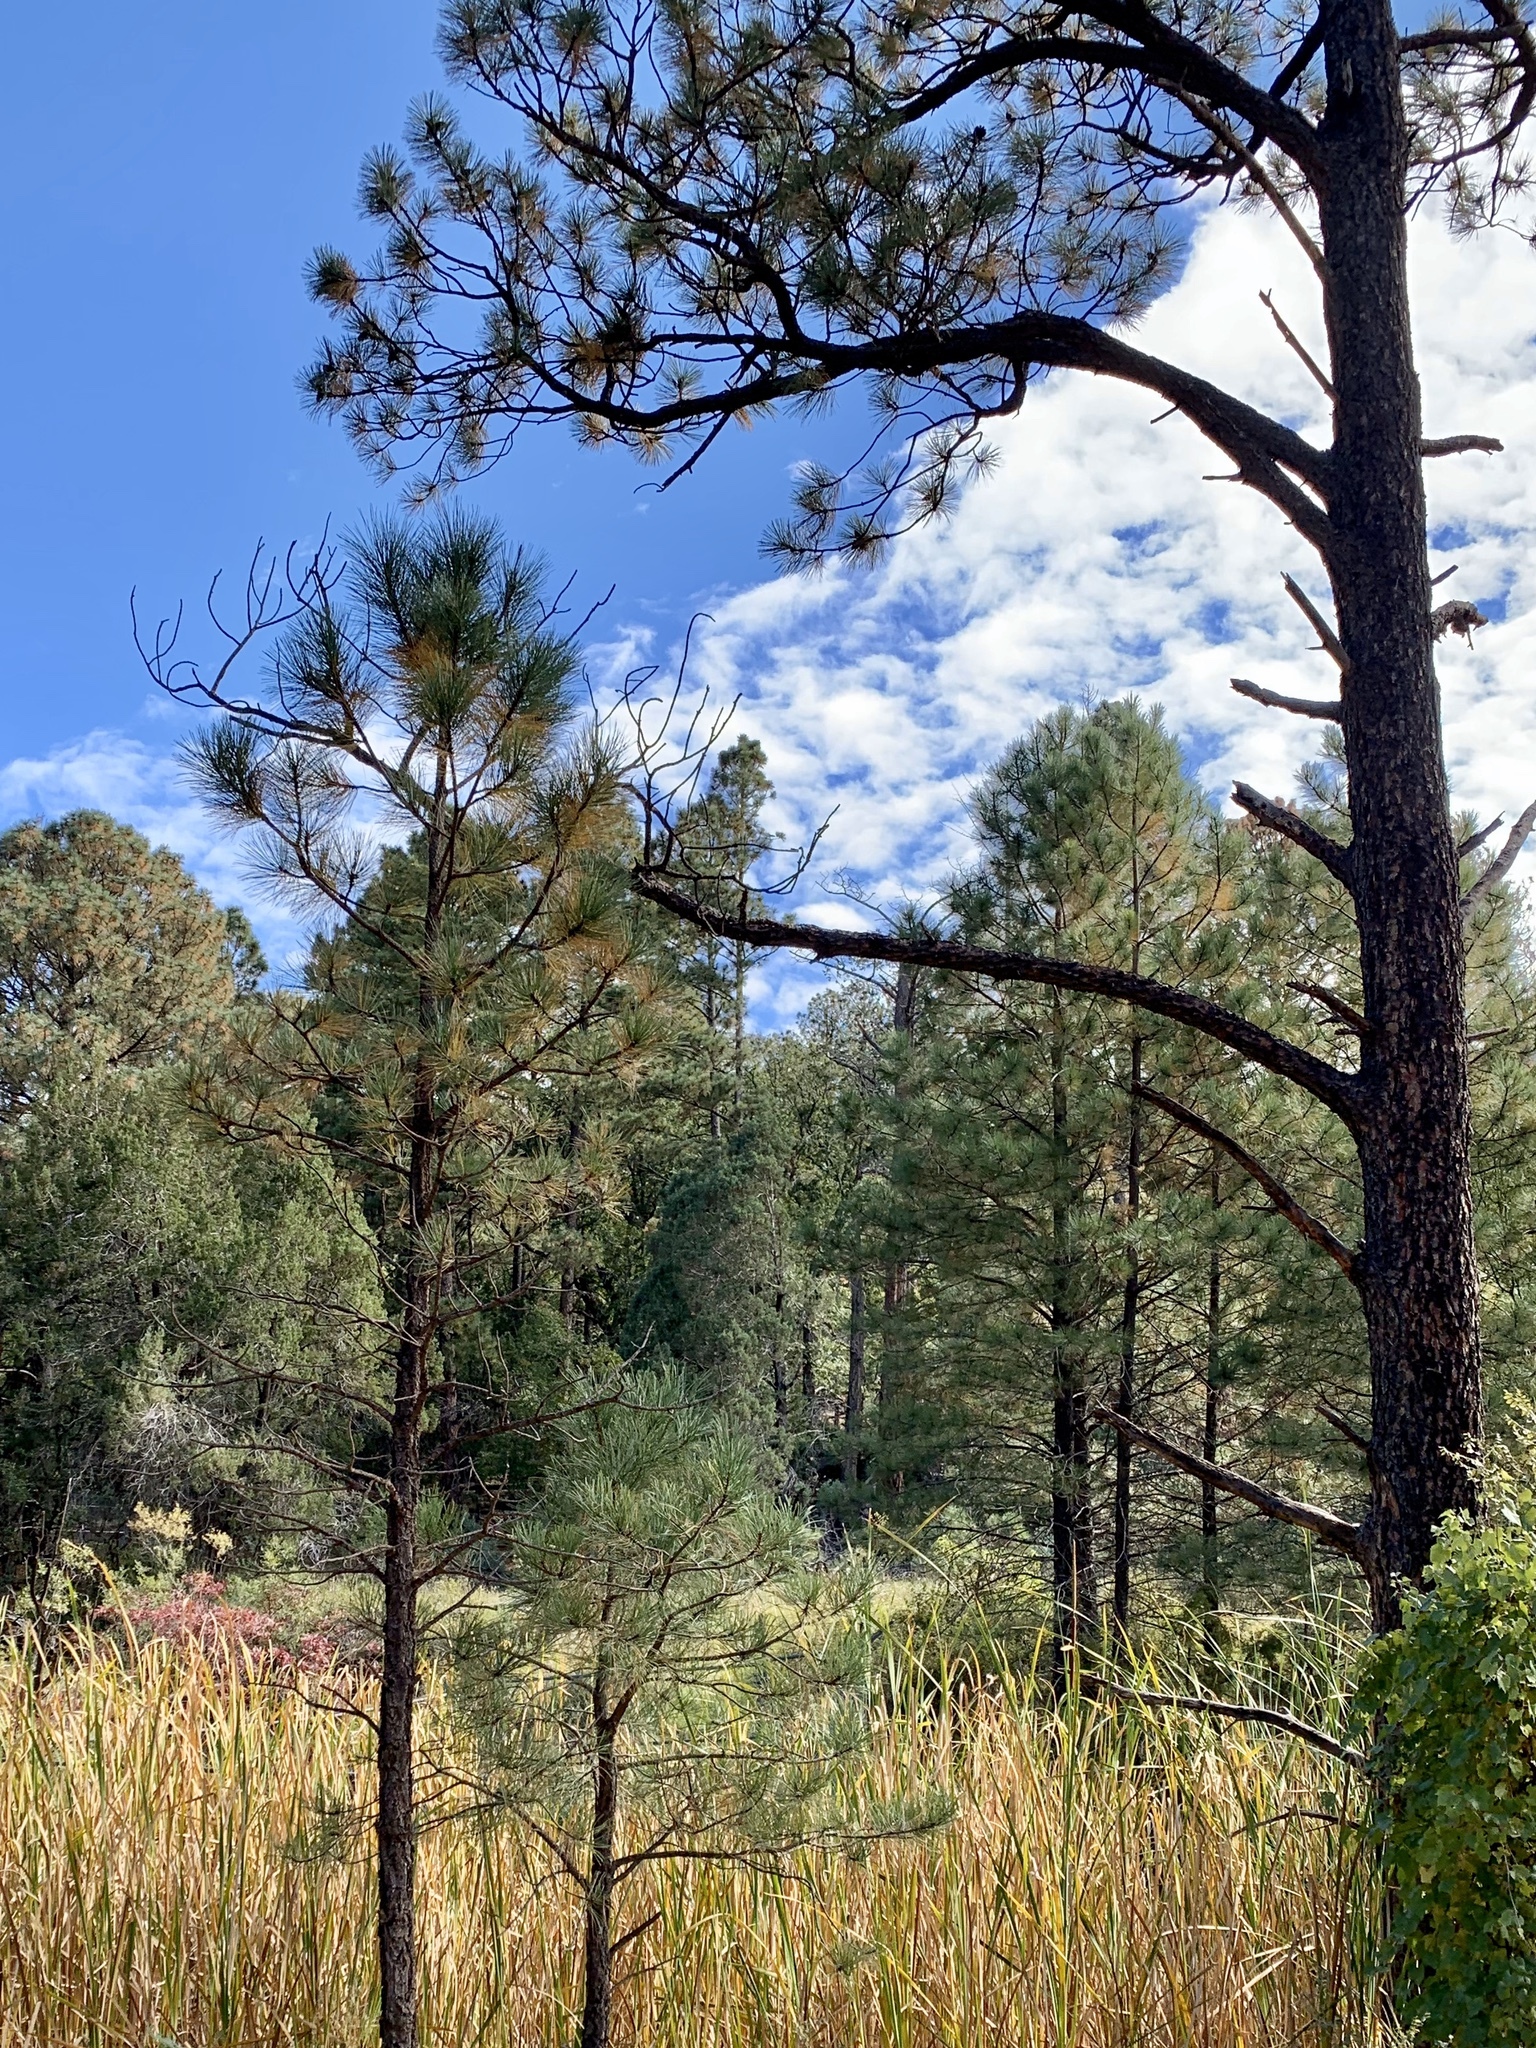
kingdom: Plantae
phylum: Tracheophyta
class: Pinopsida
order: Pinales
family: Pinaceae
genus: Pinus
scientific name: Pinus ponderosa
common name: Western yellow-pine
